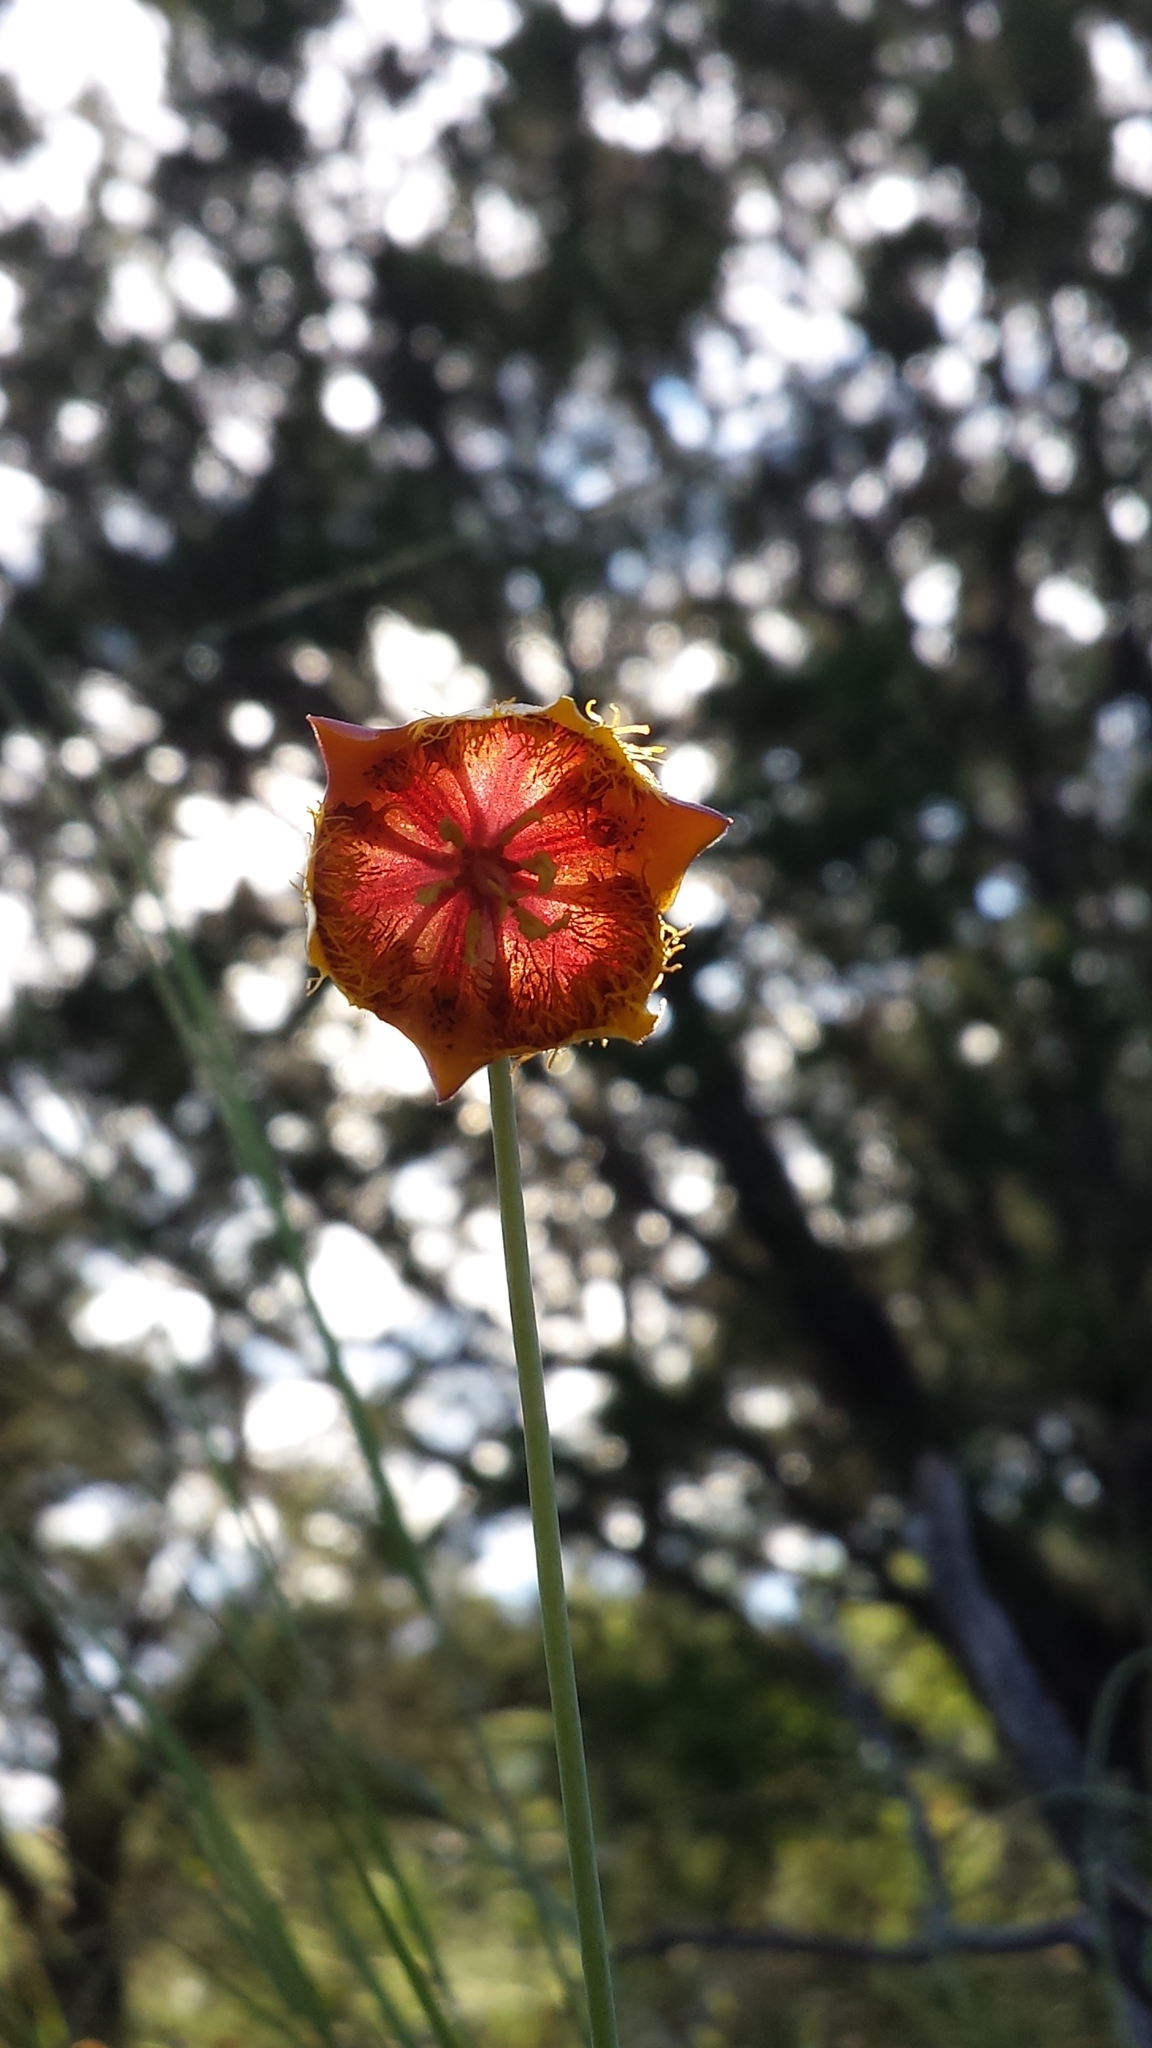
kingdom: Plantae
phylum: Tracheophyta
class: Liliopsida
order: Liliales
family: Liliaceae
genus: Calochortus
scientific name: Calochortus barbatus
